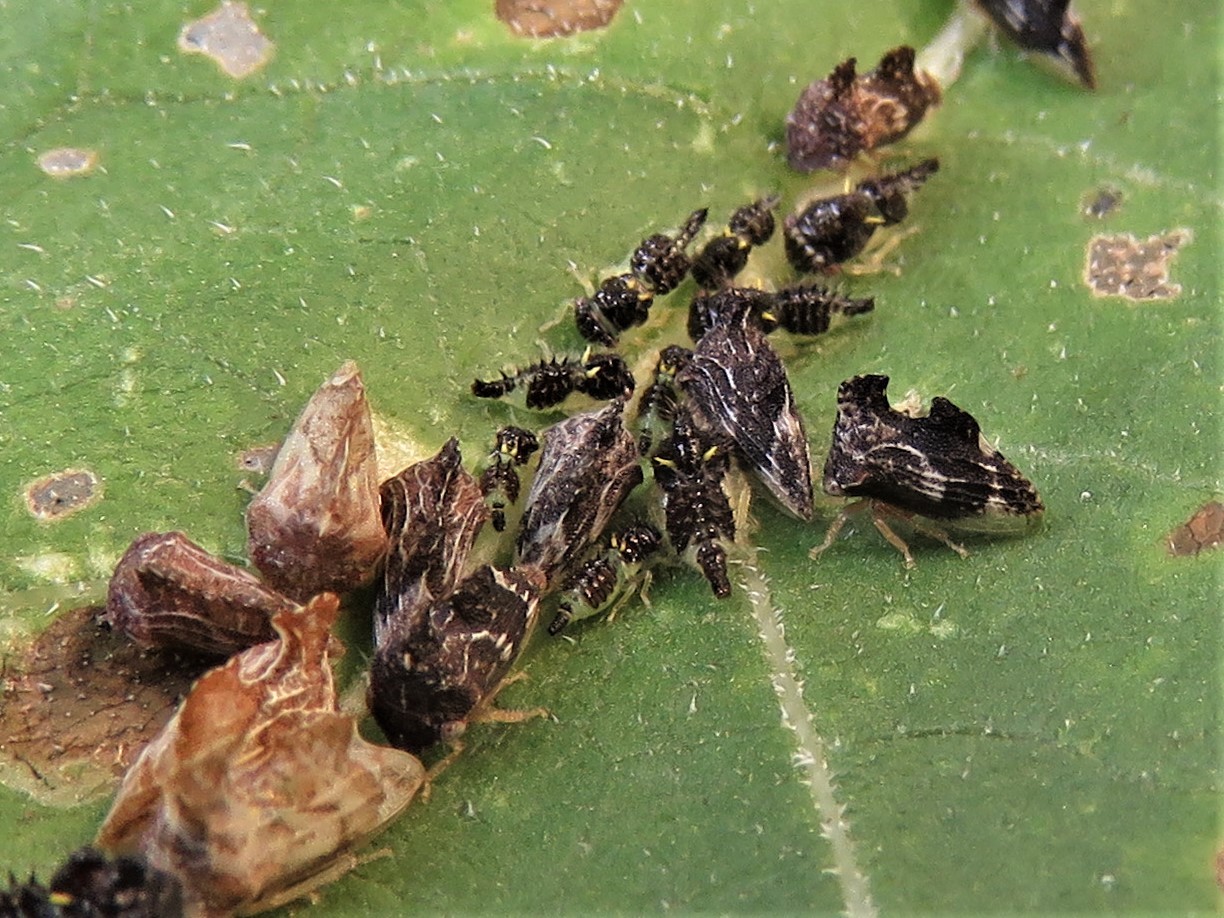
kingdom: Animalia
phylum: Arthropoda
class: Insecta
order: Hemiptera
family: Membracidae
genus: Entylia
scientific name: Entylia carinata
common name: Keeled treehopper
